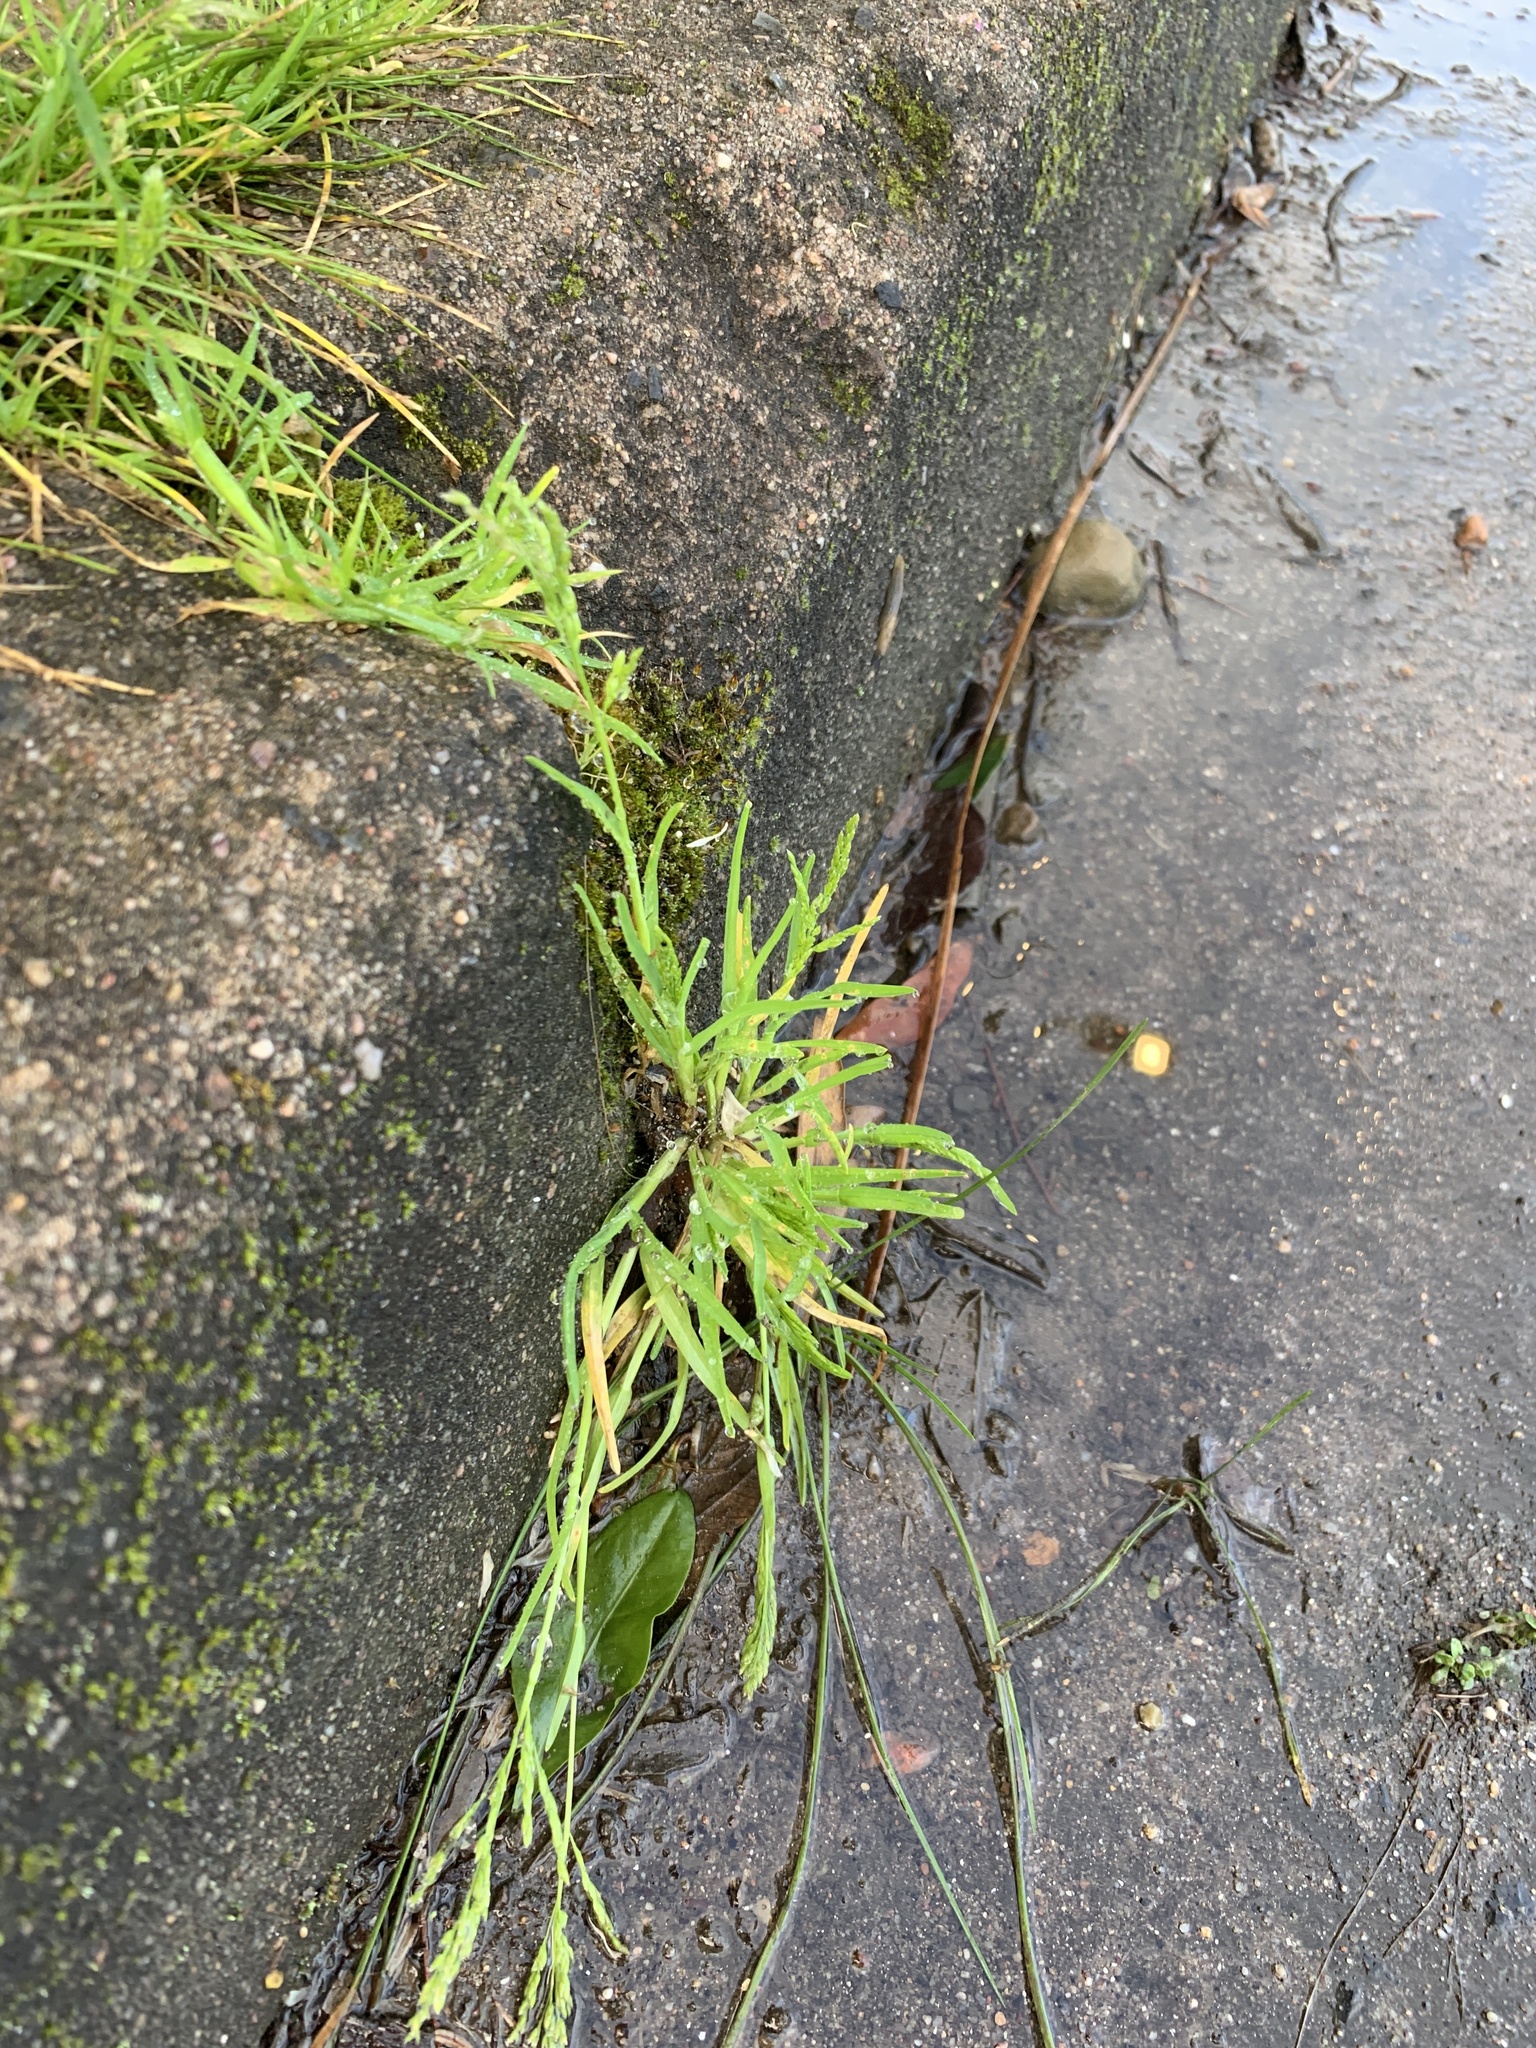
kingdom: Plantae
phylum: Tracheophyta
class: Liliopsida
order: Poales
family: Poaceae
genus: Poa
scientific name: Poa annua
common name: Annual bluegrass
